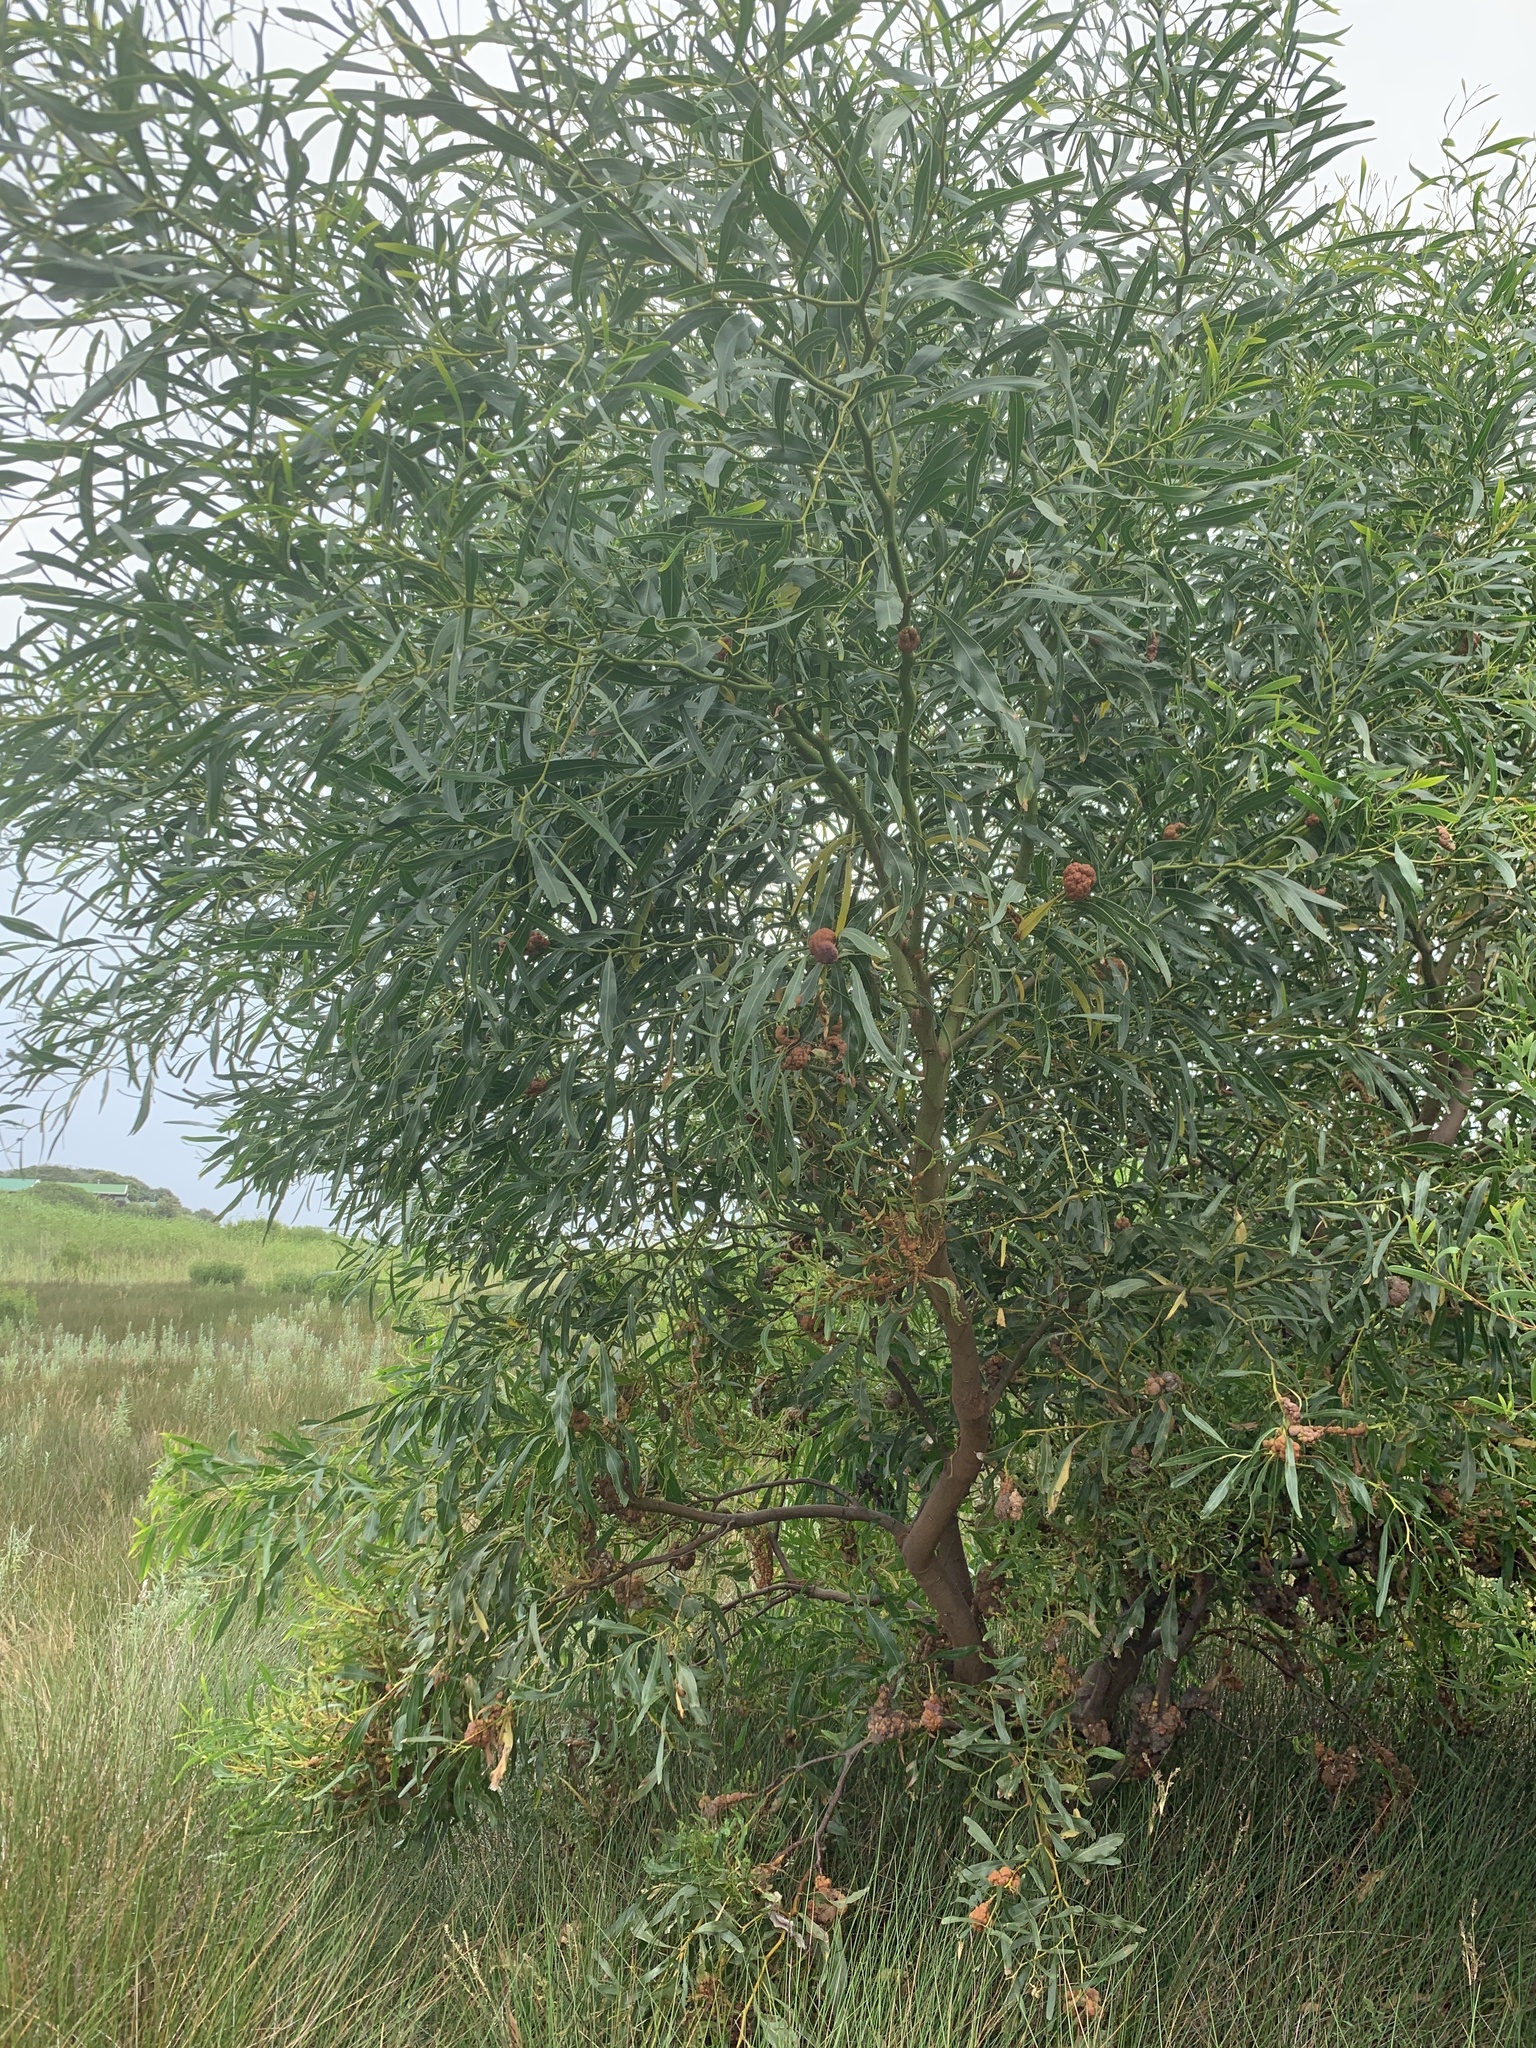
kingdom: Plantae
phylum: Tracheophyta
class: Magnoliopsida
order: Fabales
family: Fabaceae
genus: Acacia
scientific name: Acacia saligna
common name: Orange wattle
